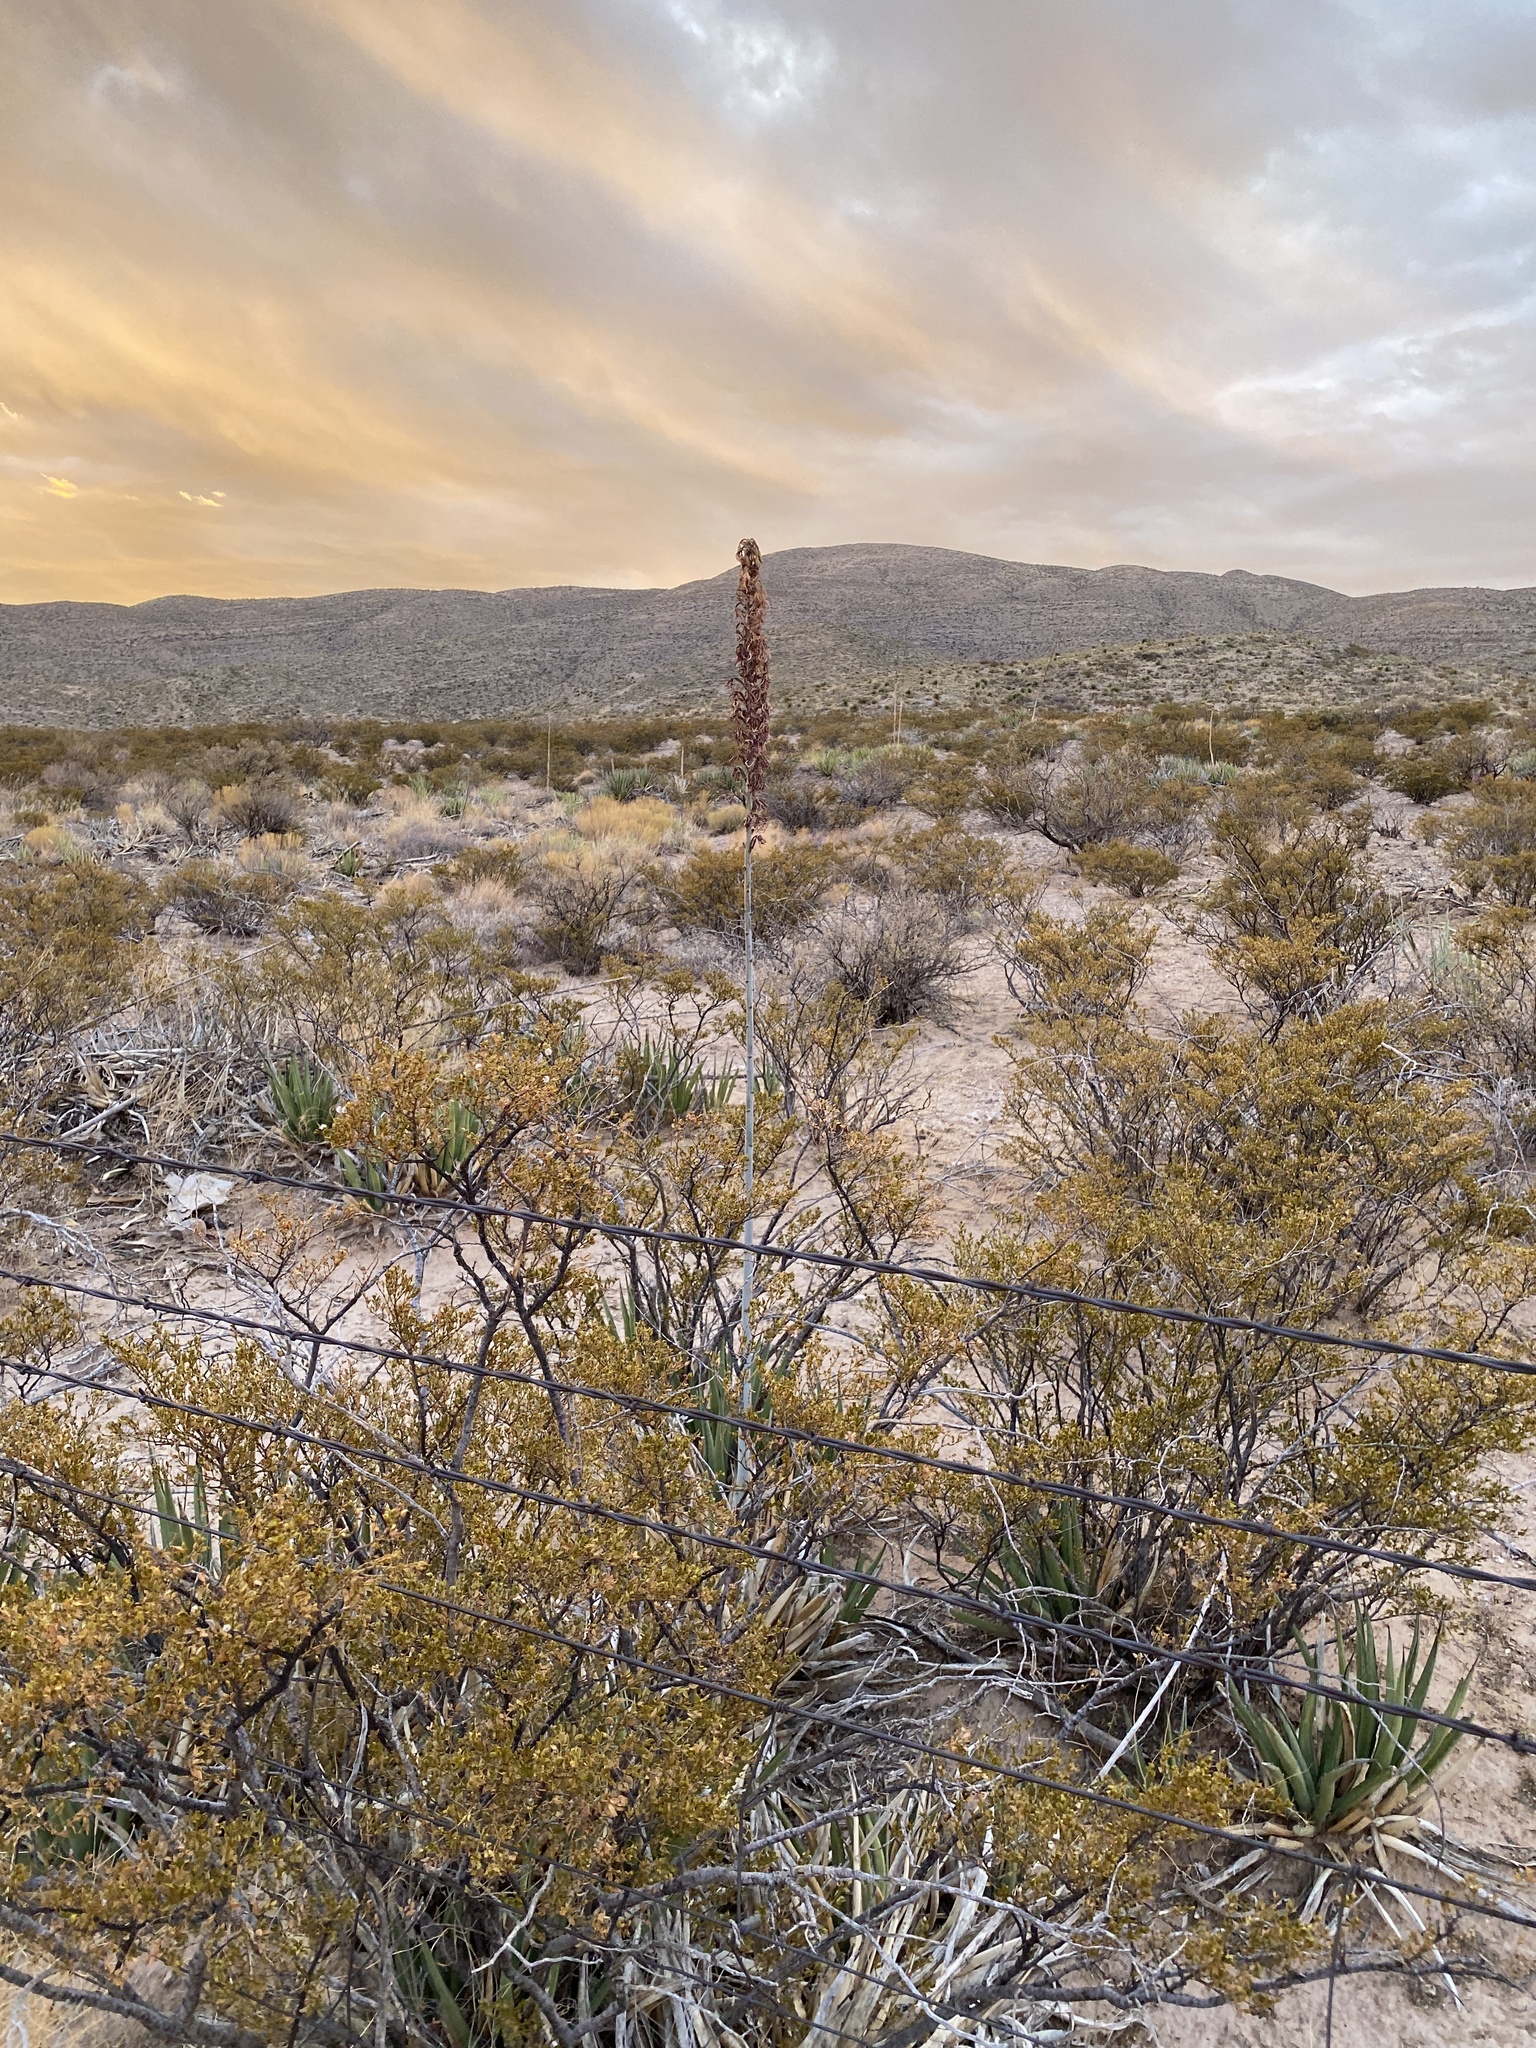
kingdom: Plantae
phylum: Tracheophyta
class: Magnoliopsida
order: Zygophyllales
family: Zygophyllaceae
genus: Larrea
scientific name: Larrea tridentata
